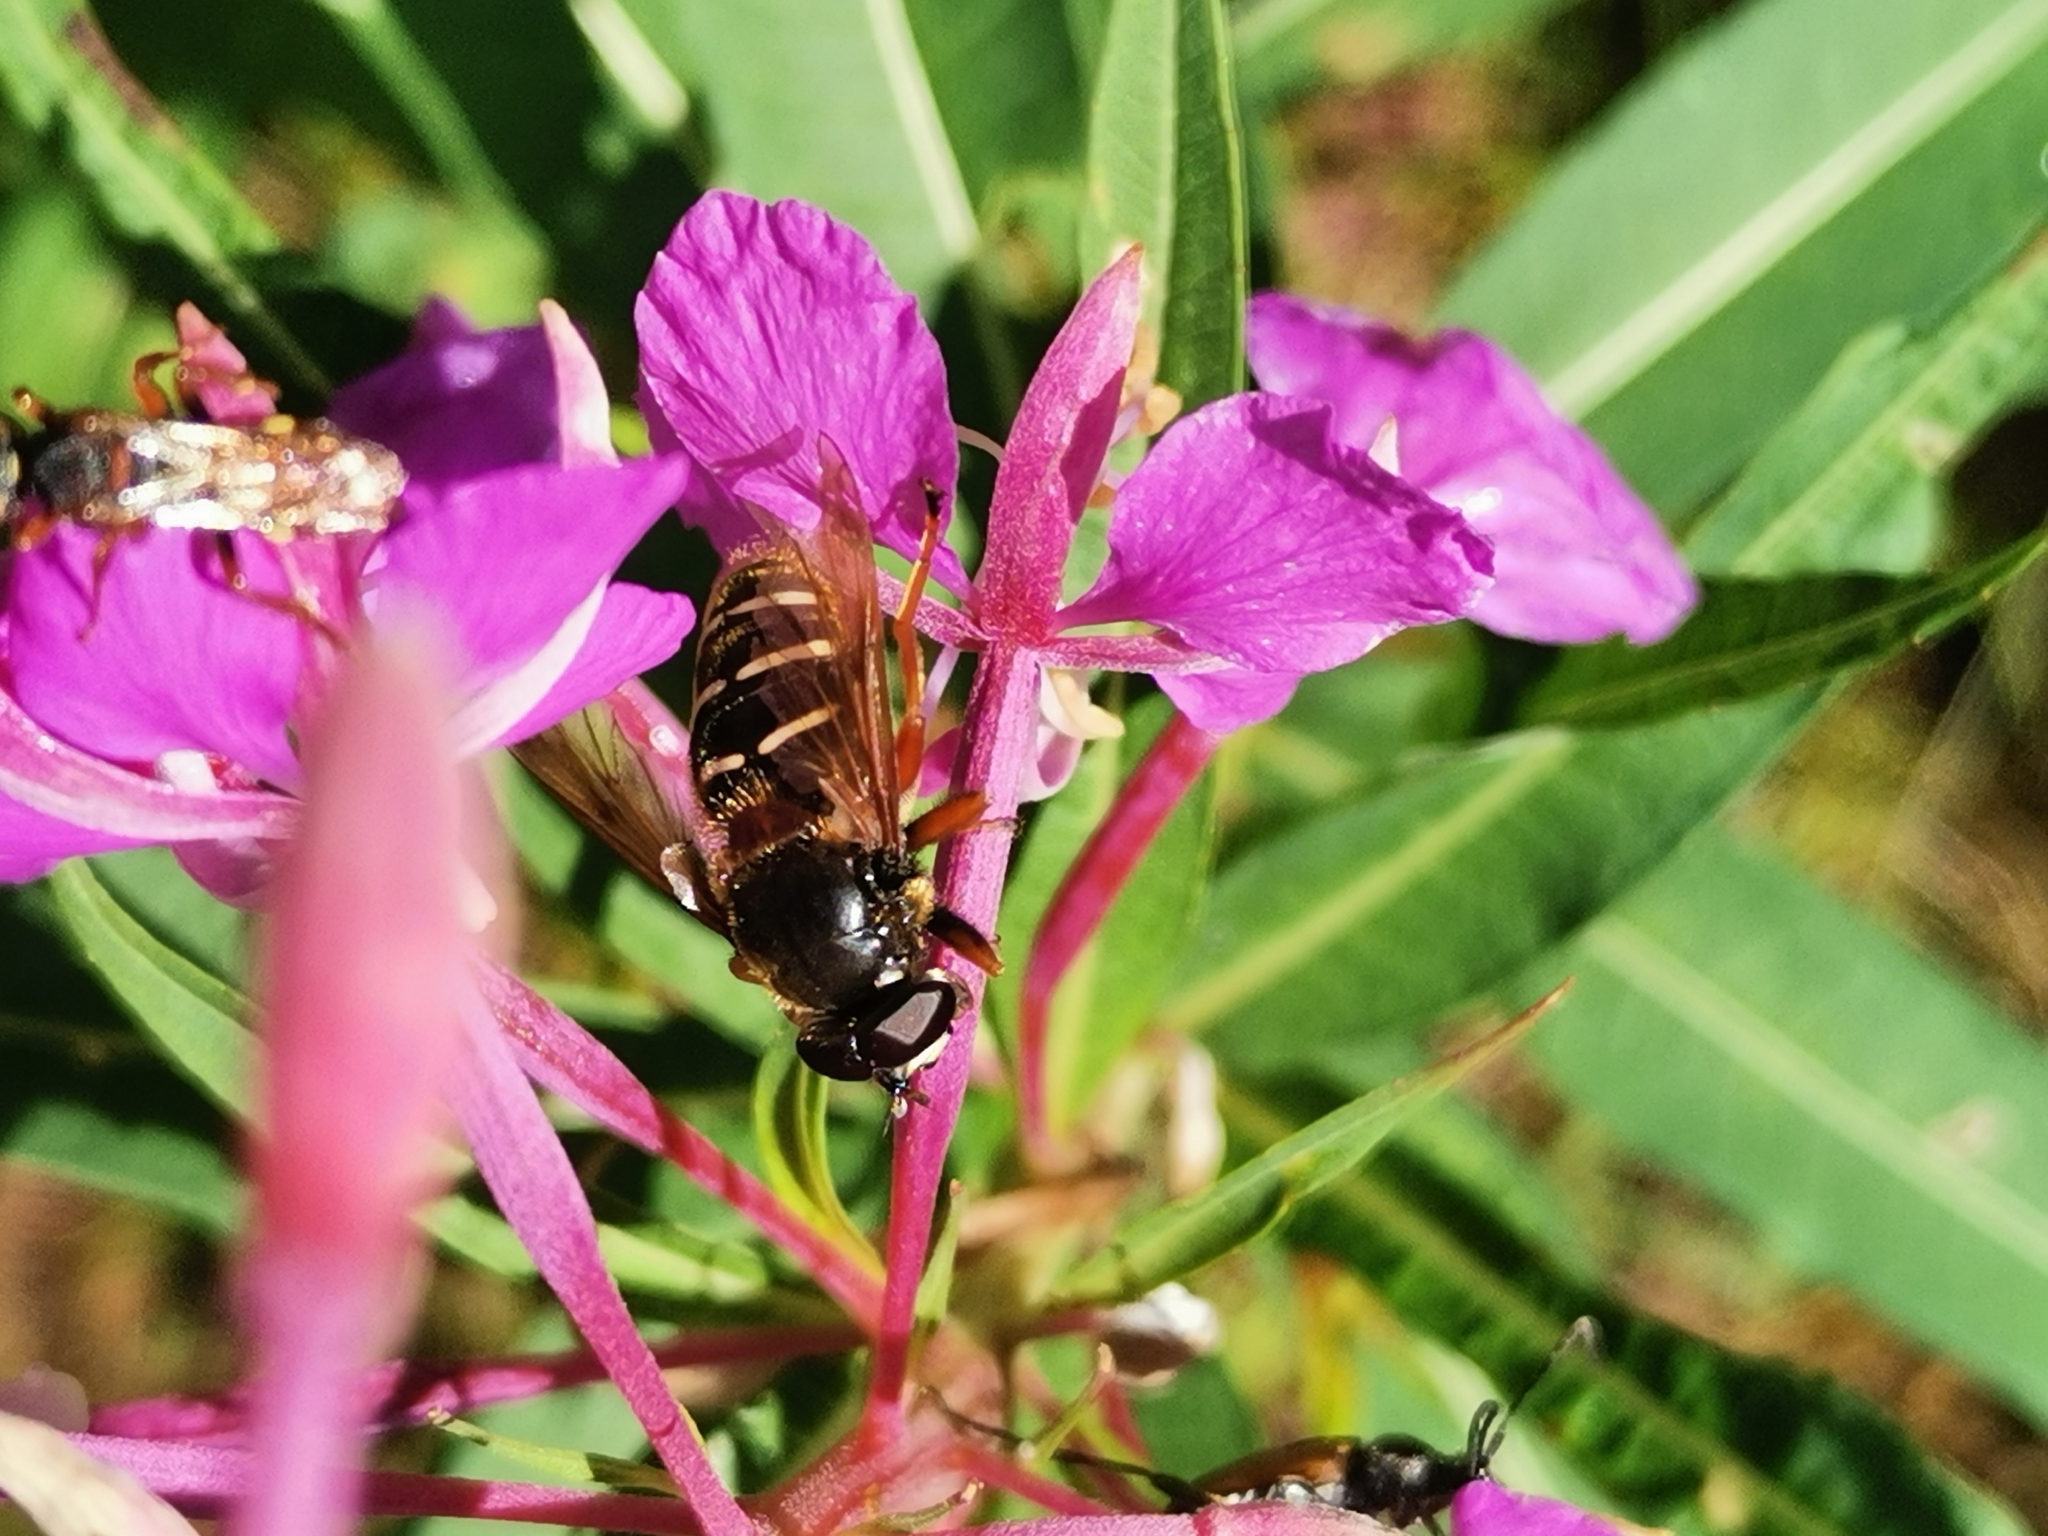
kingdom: Animalia
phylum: Arthropoda
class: Insecta
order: Diptera
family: Syrphidae
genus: Sericomyia
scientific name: Sericomyia lappona
